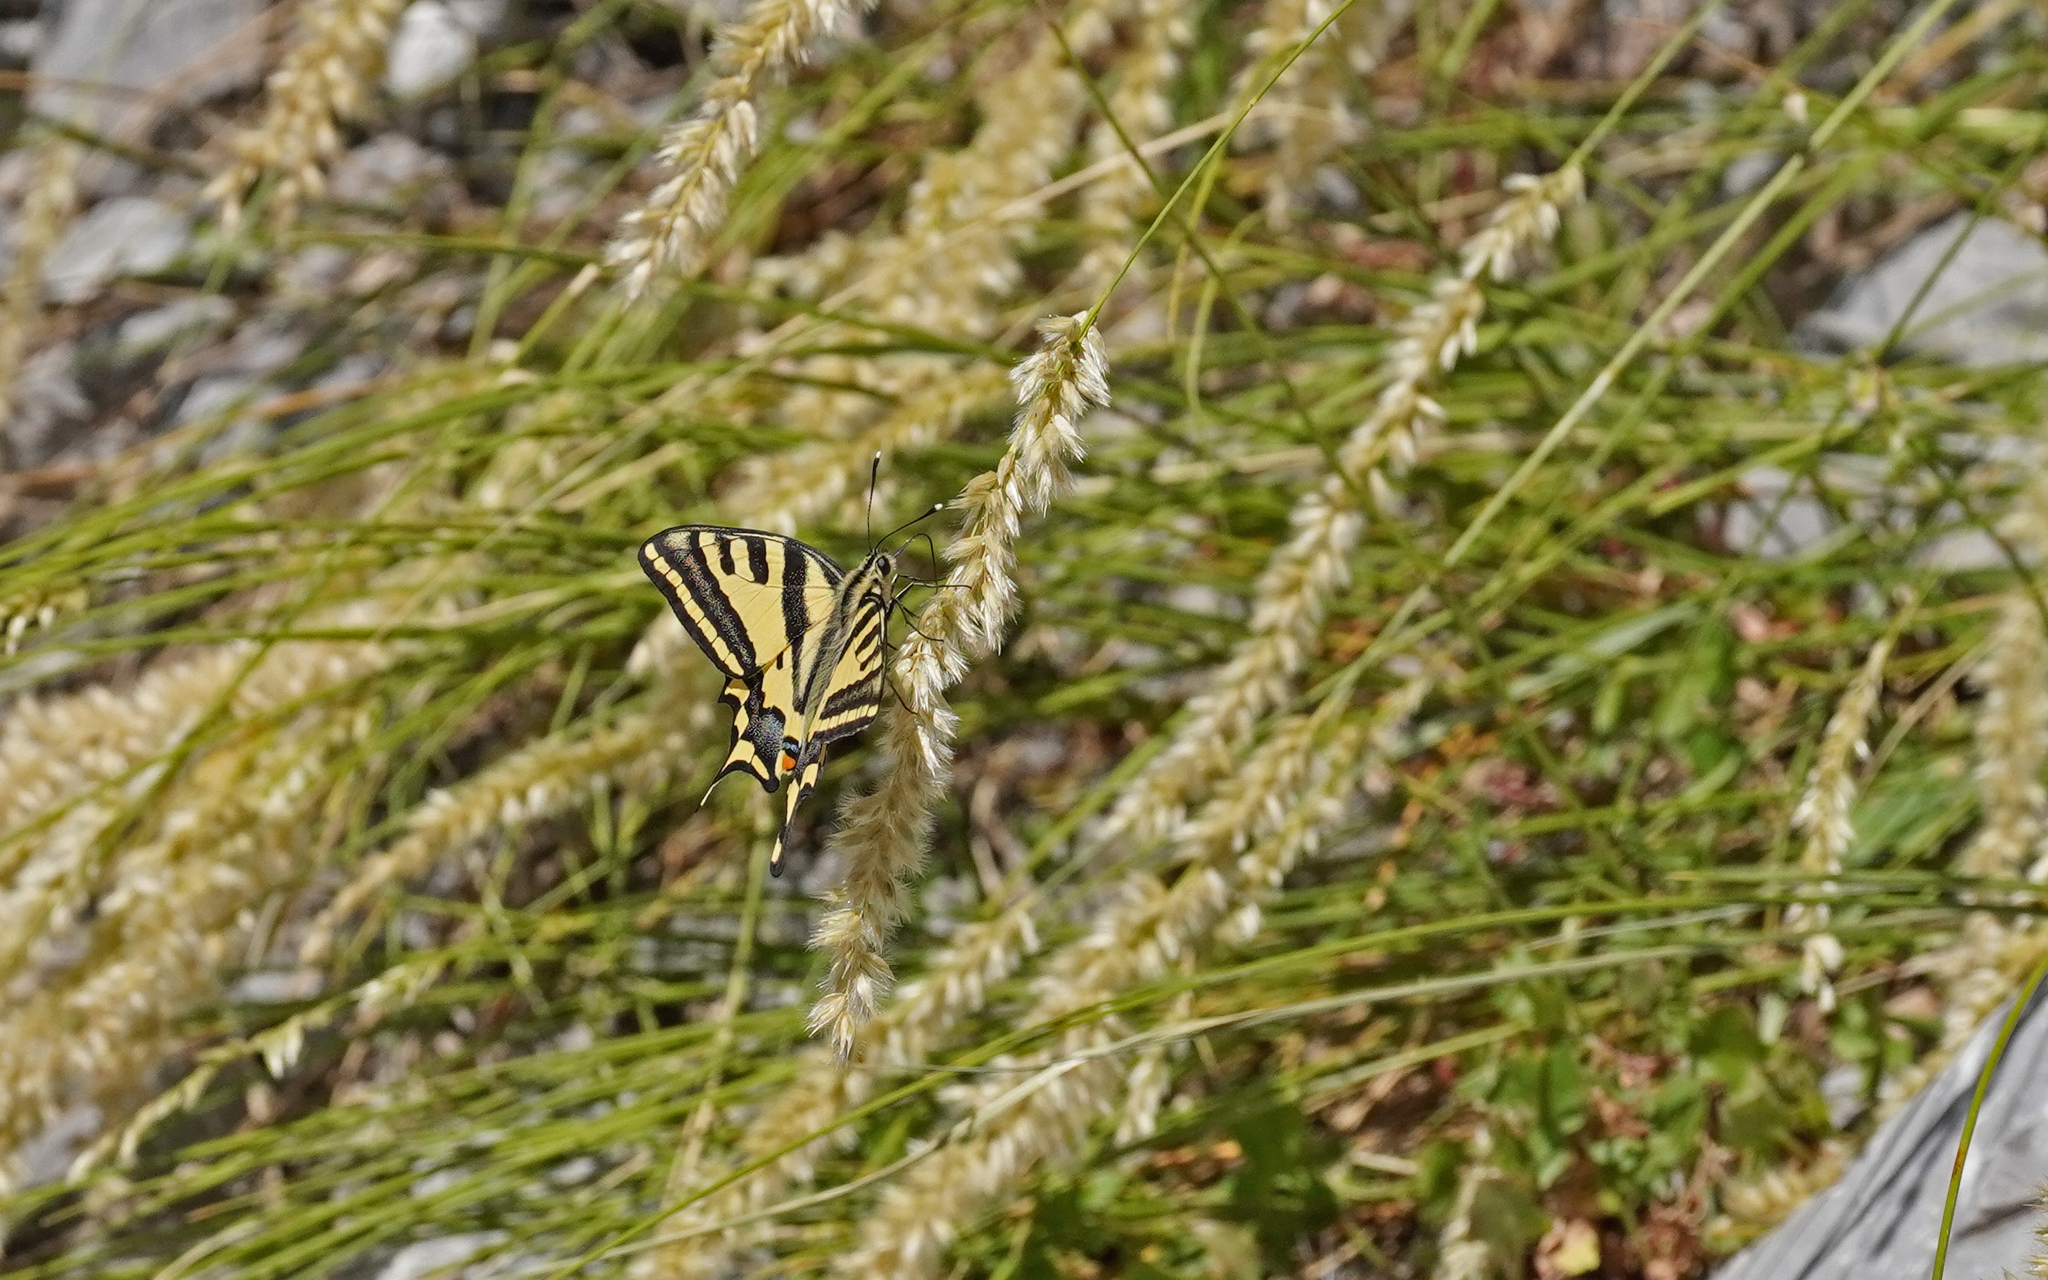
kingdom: Animalia
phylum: Arthropoda
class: Insecta
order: Lepidoptera
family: Papilionidae
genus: Papilio
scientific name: Papilio alexanor
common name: Southern swallowtail
